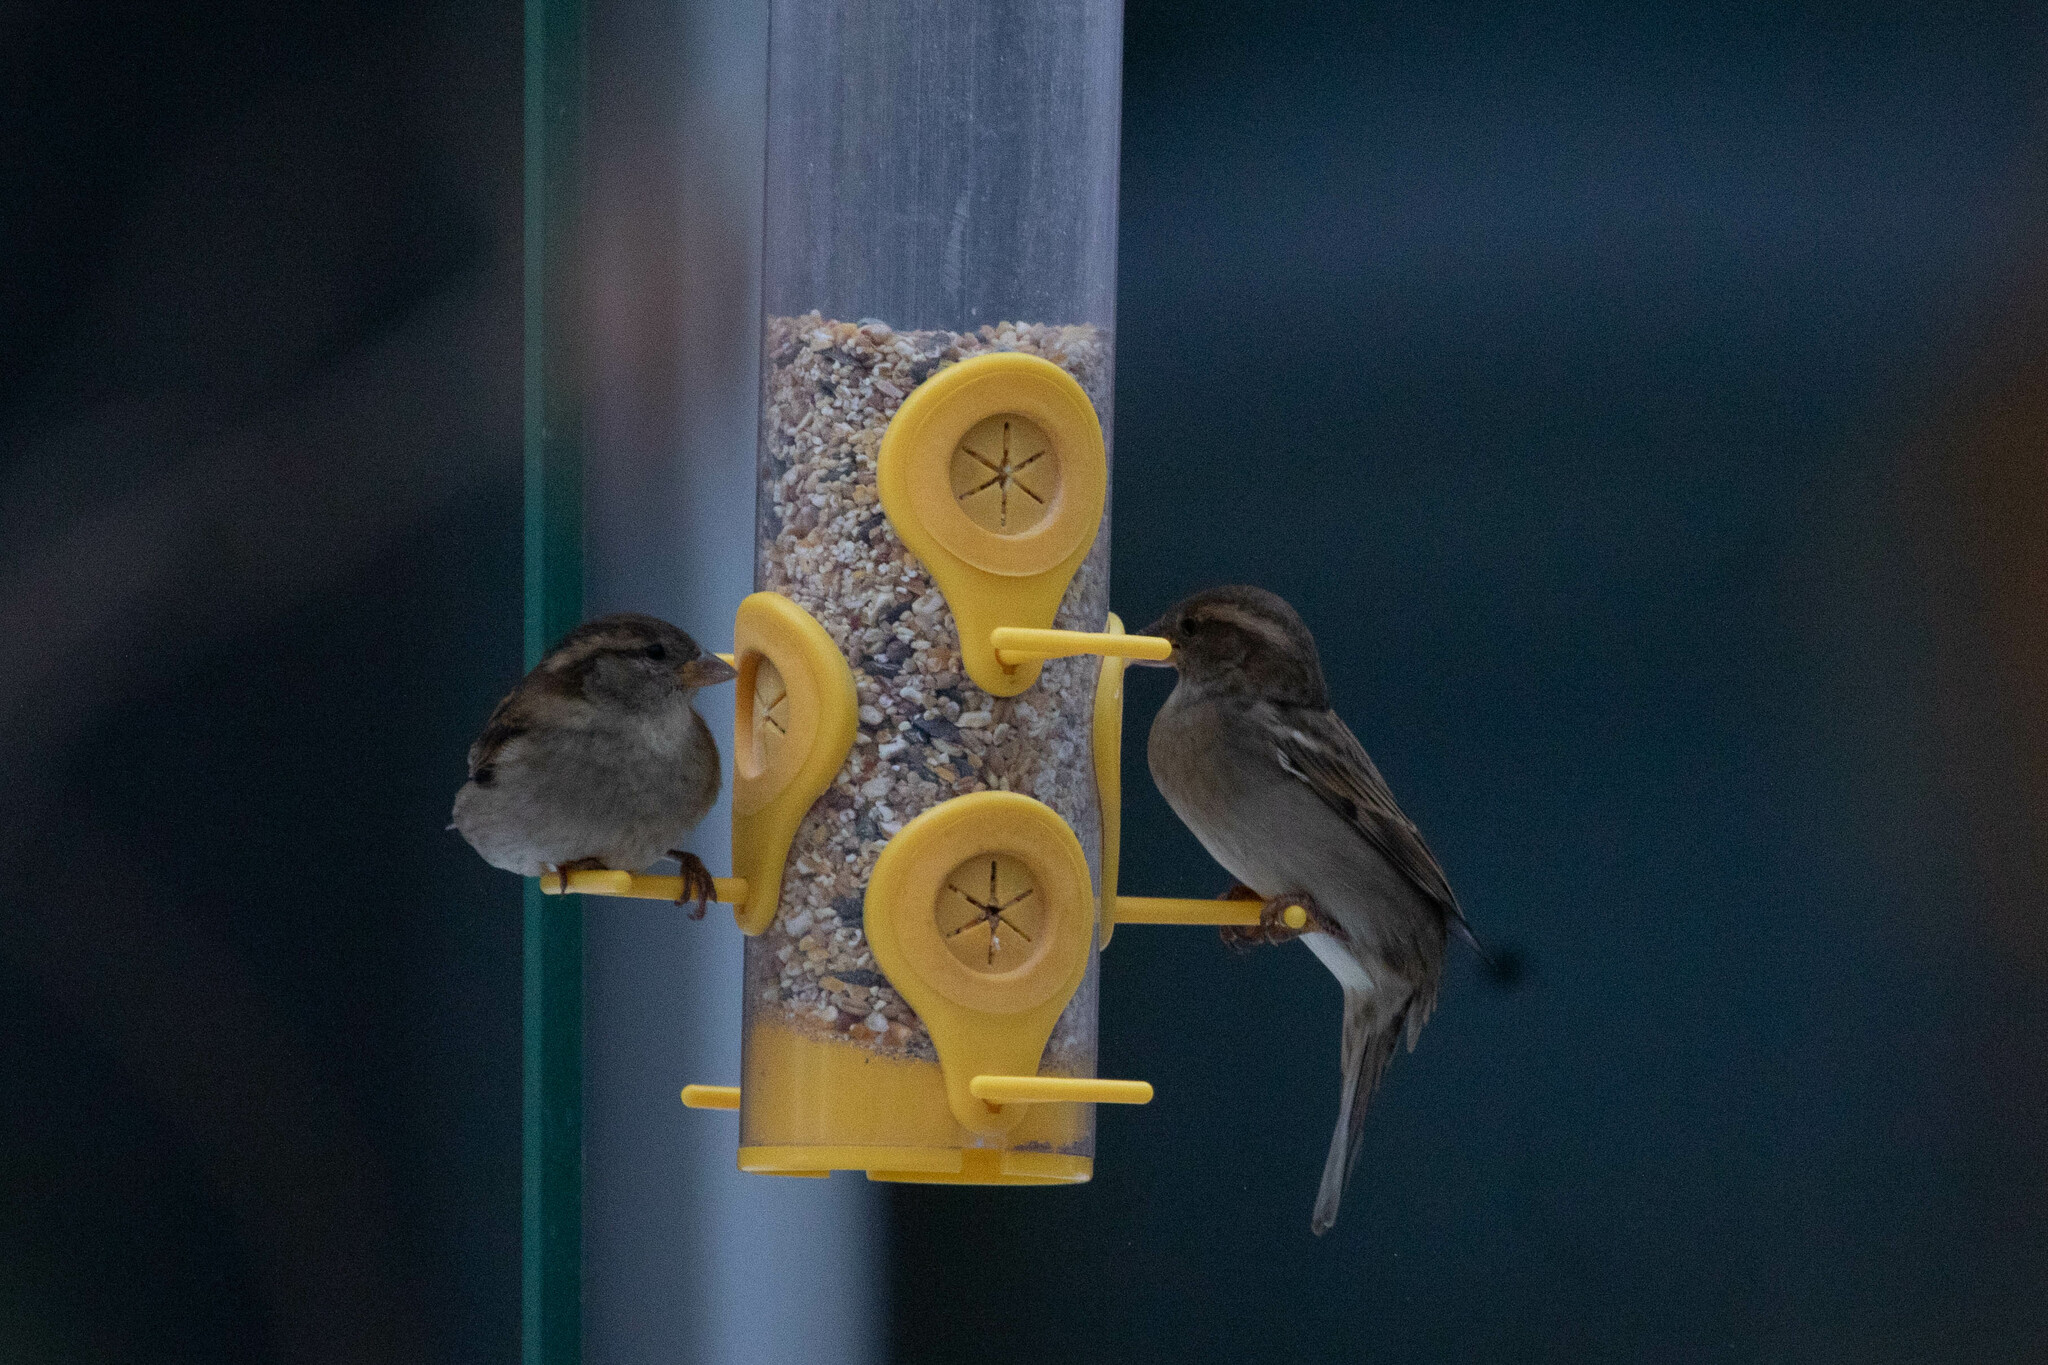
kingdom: Animalia
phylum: Chordata
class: Aves
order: Passeriformes
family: Passeridae
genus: Passer
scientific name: Passer domesticus
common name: House sparrow
